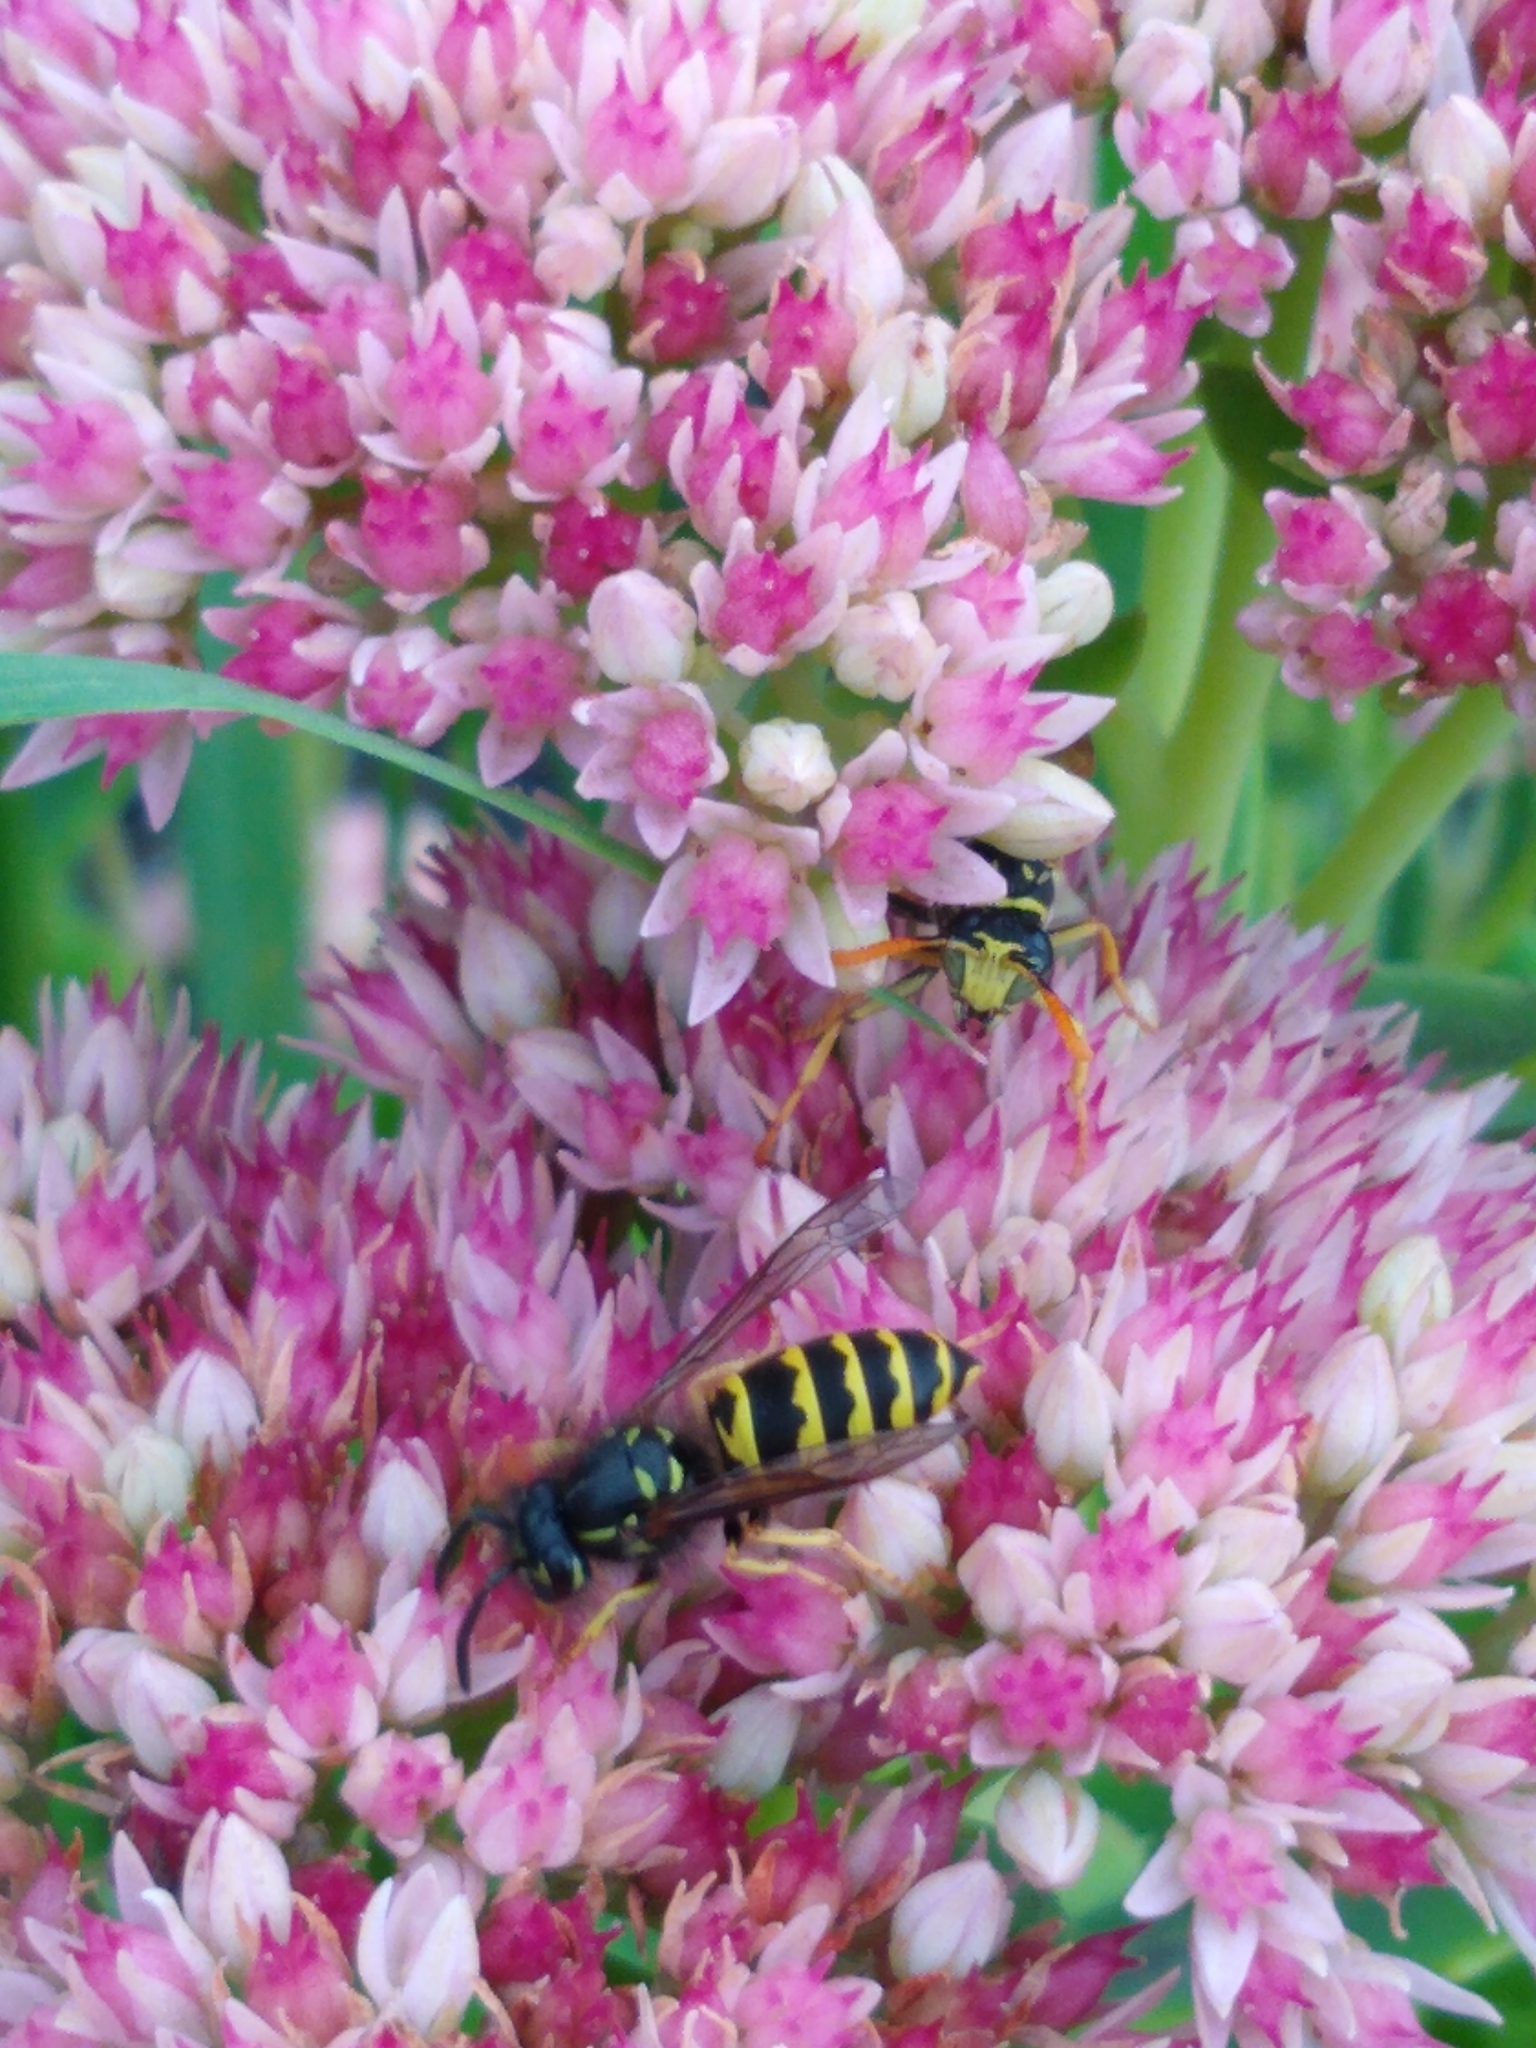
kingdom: Animalia
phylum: Arthropoda
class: Insecta
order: Hymenoptera
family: Vespidae
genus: Vespula
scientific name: Vespula alascensis
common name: Alaska yellowjacket
